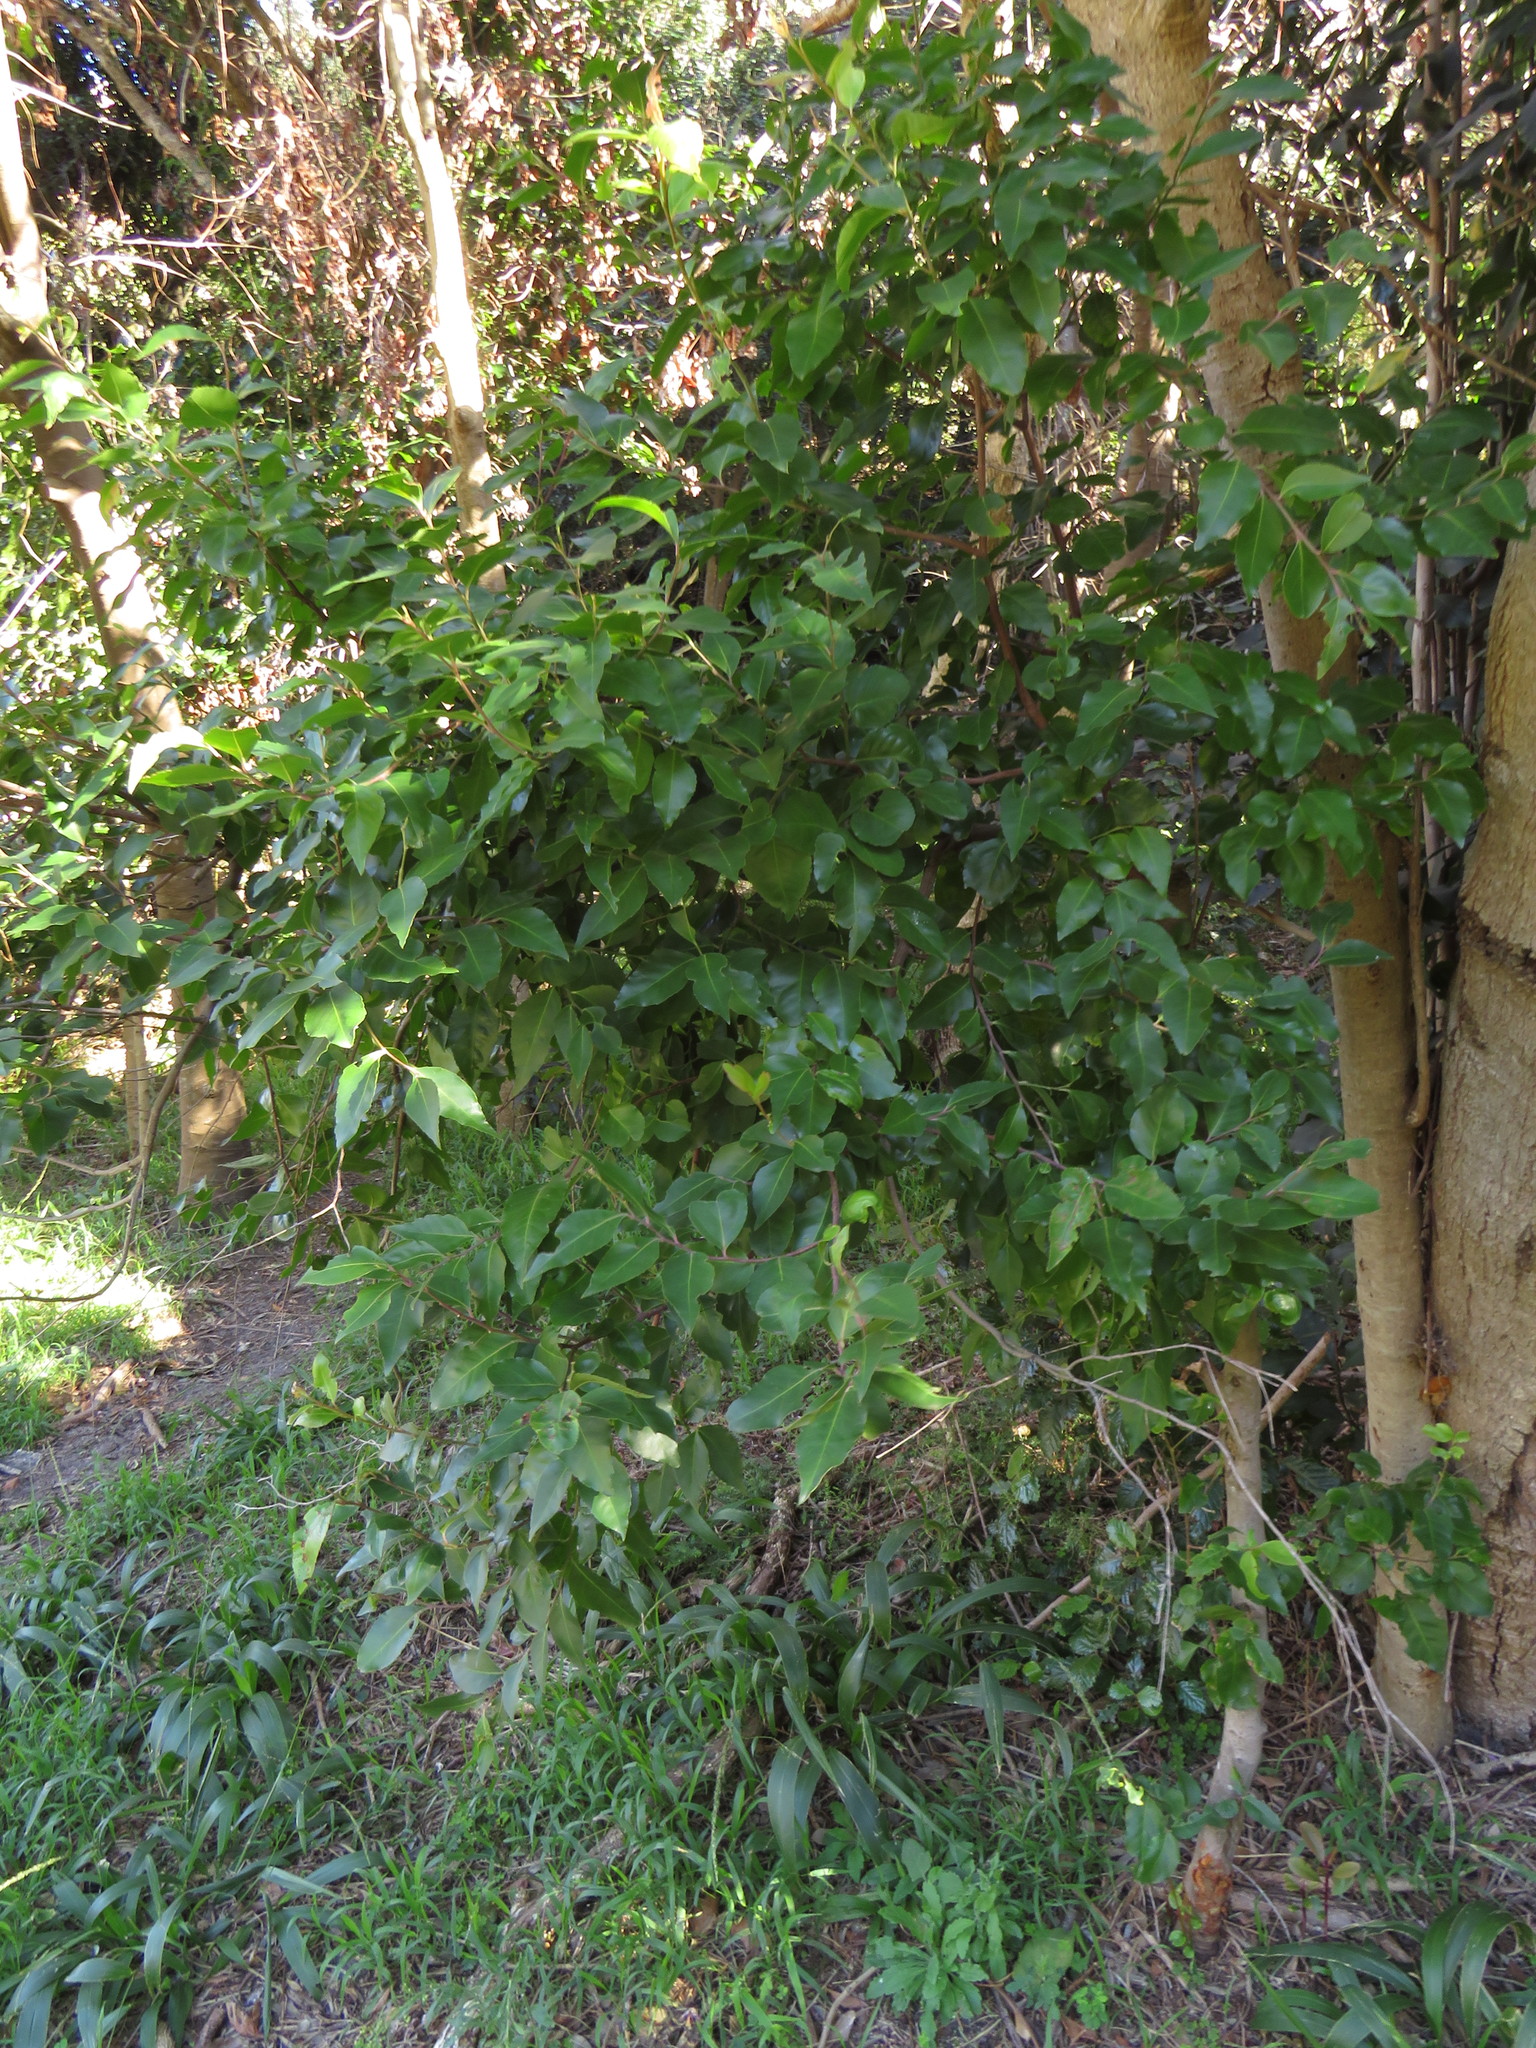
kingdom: Plantae
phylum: Tracheophyta
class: Magnoliopsida
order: Celastrales
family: Celastraceae
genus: Gymnosporia
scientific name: Gymnosporia acuminata
